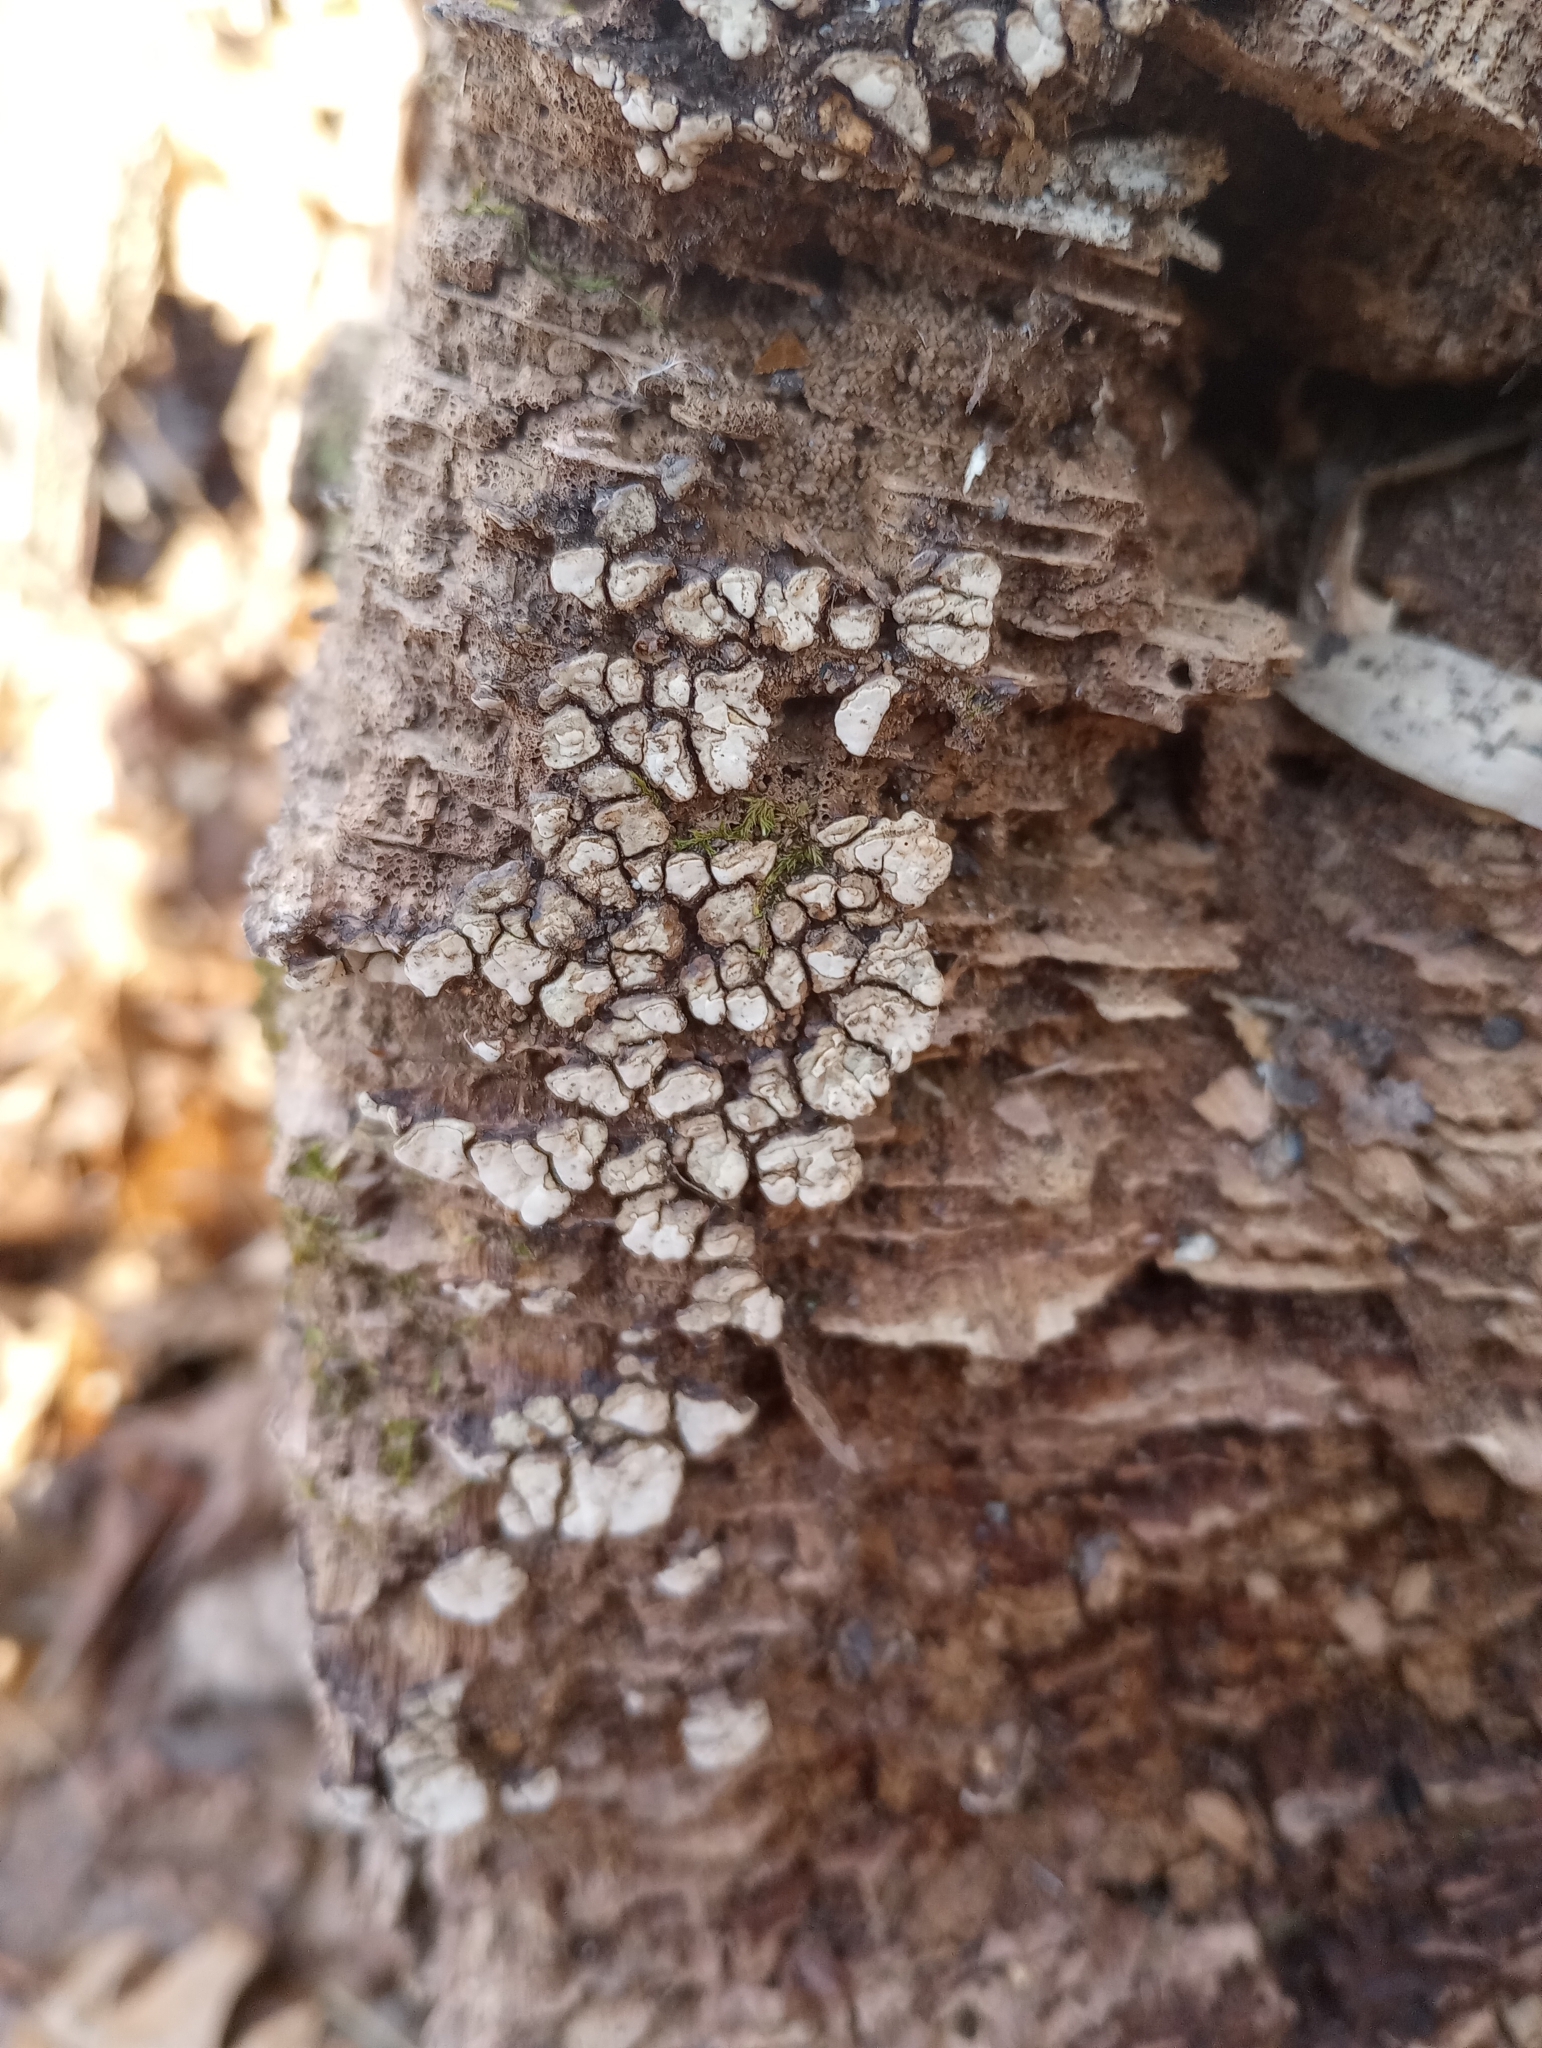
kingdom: Fungi
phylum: Basidiomycota
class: Agaricomycetes
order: Russulales
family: Stereaceae
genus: Xylobolus
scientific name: Xylobolus frustulatus
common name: Ceramic parchment
